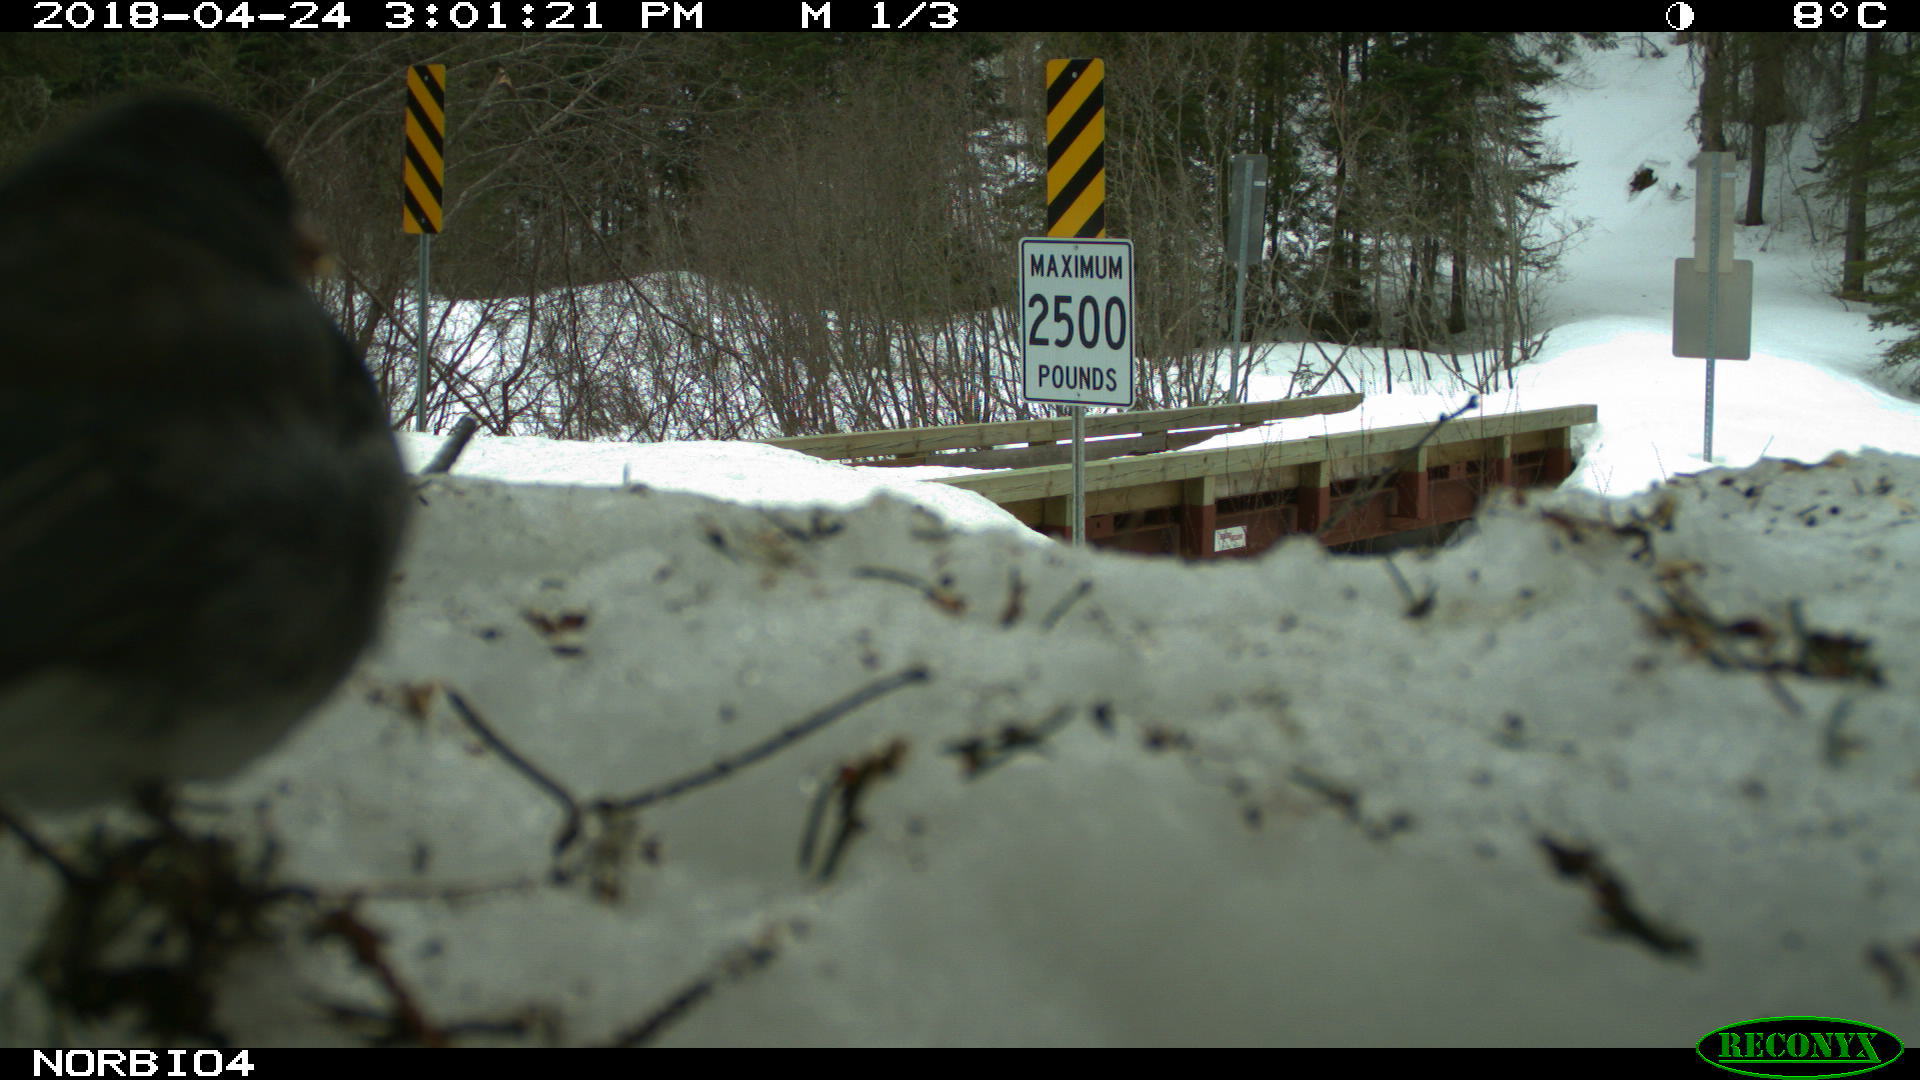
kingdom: Animalia
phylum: Chordata
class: Aves
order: Passeriformes
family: Passerellidae
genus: Junco
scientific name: Junco hyemalis
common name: Dark-eyed junco
